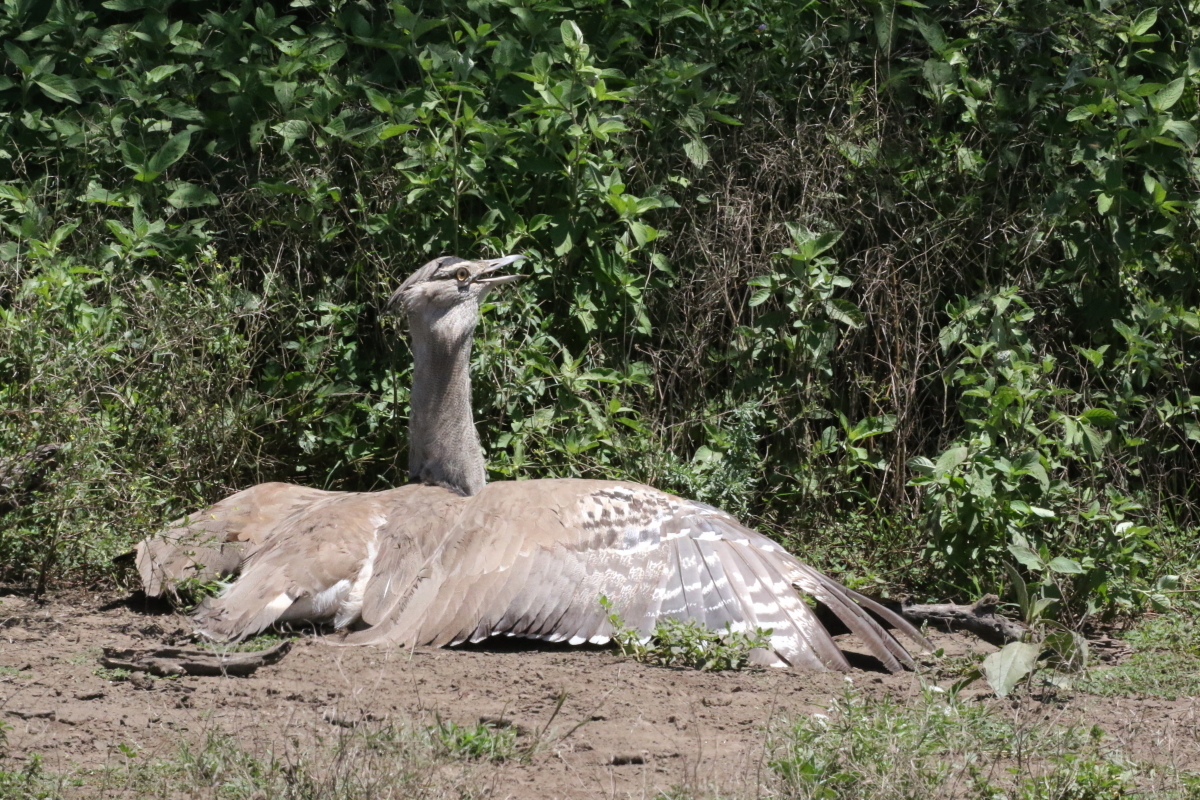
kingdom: Animalia
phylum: Chordata
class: Aves
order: Otidiformes
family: Otididae
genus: Ardeotis
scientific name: Ardeotis kori
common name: Kori bustard
